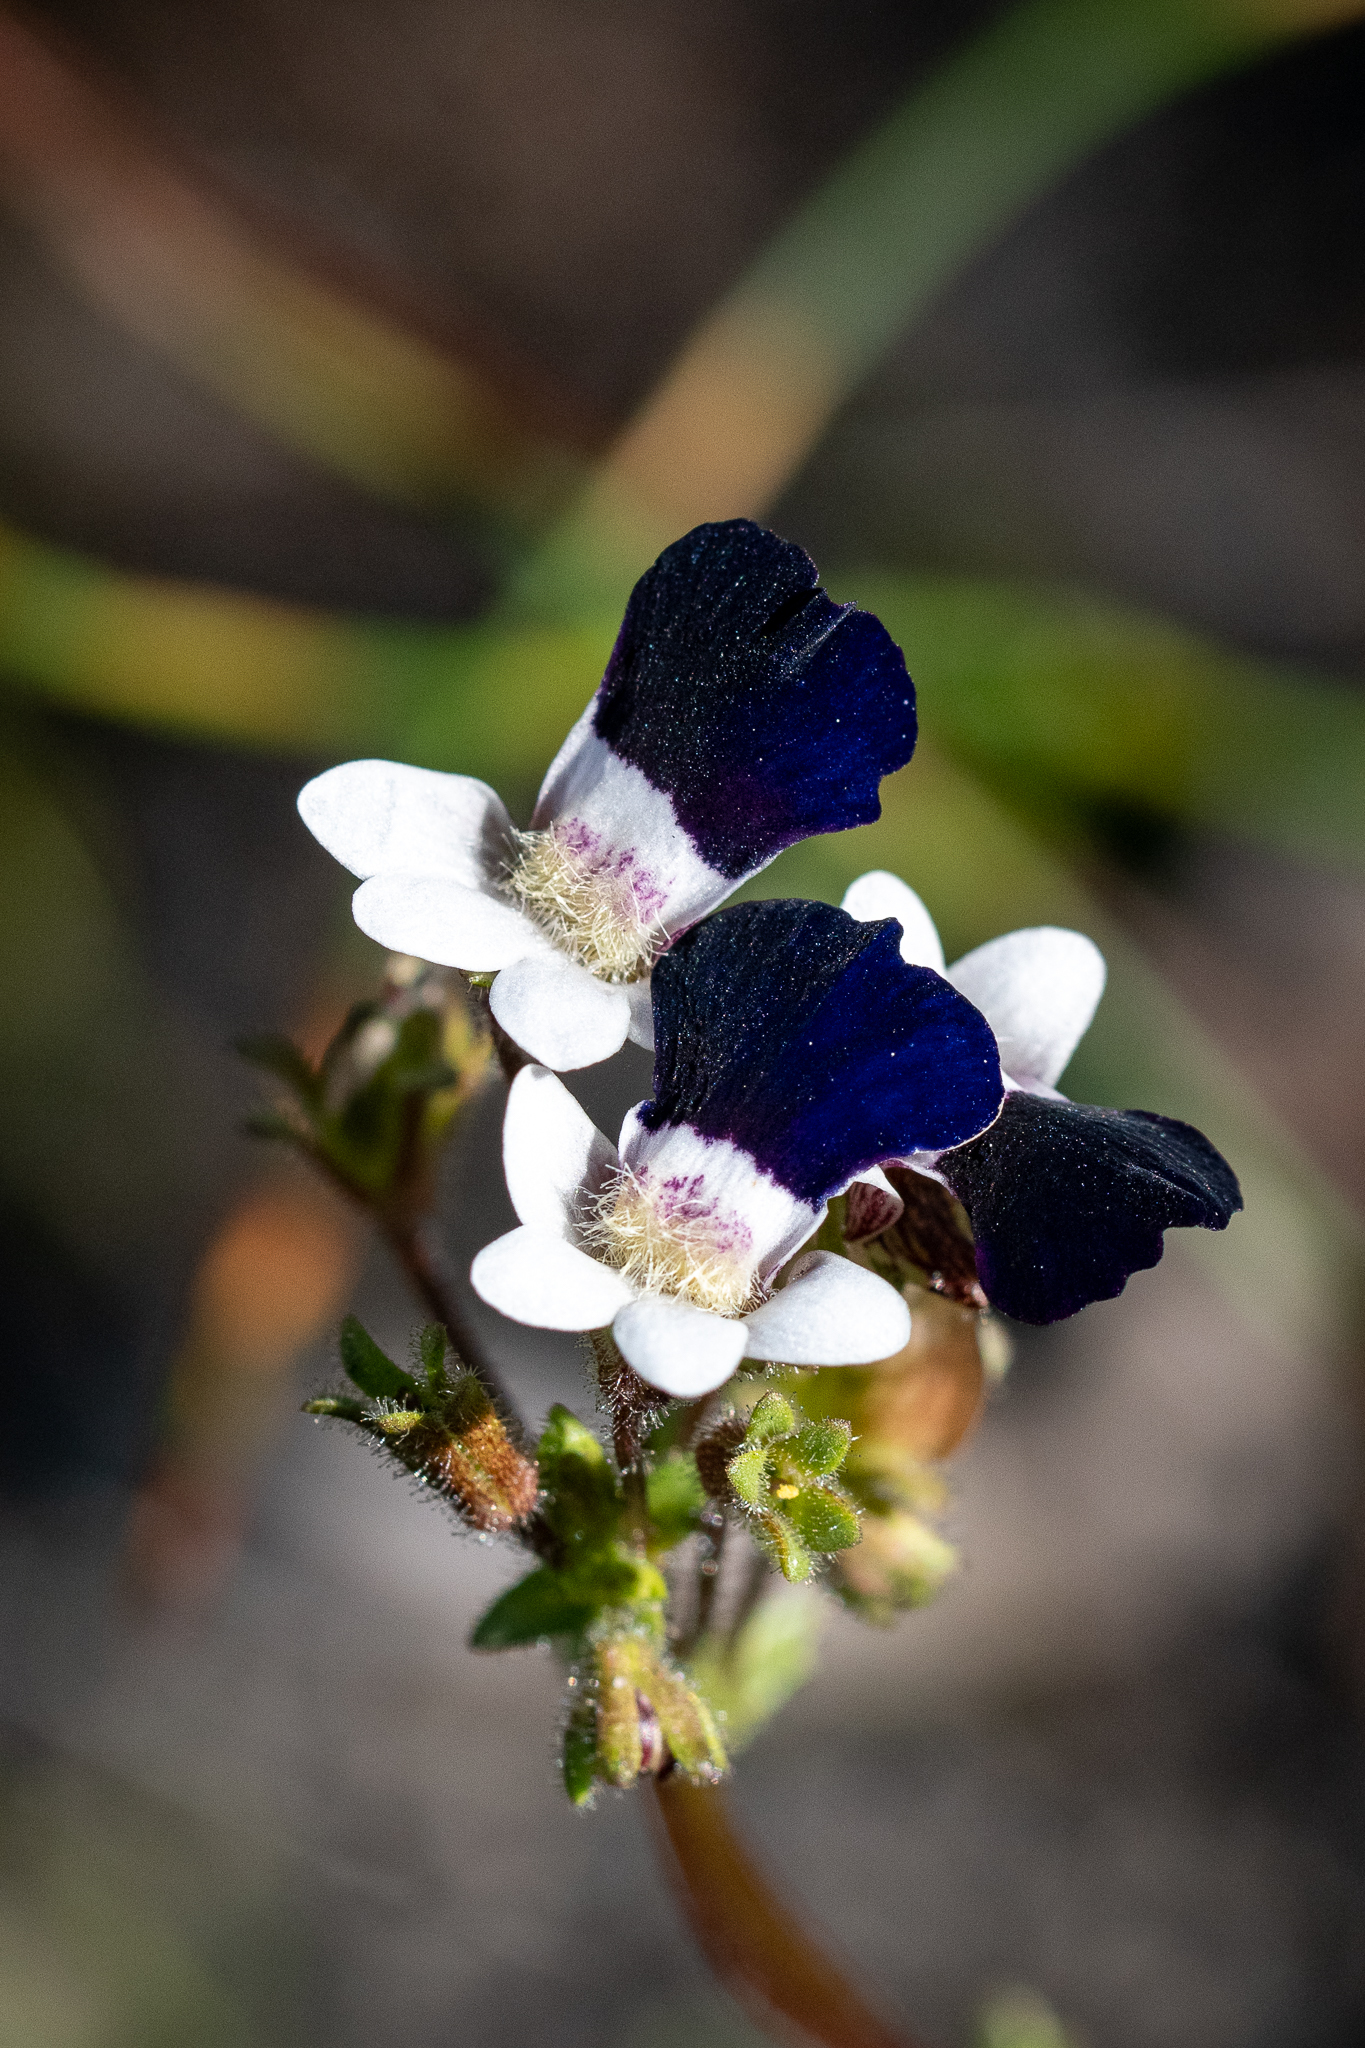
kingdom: Plantae
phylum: Tracheophyta
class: Magnoliopsida
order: Lamiales
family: Scrophulariaceae
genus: Nemesia
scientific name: Nemesia barbata
